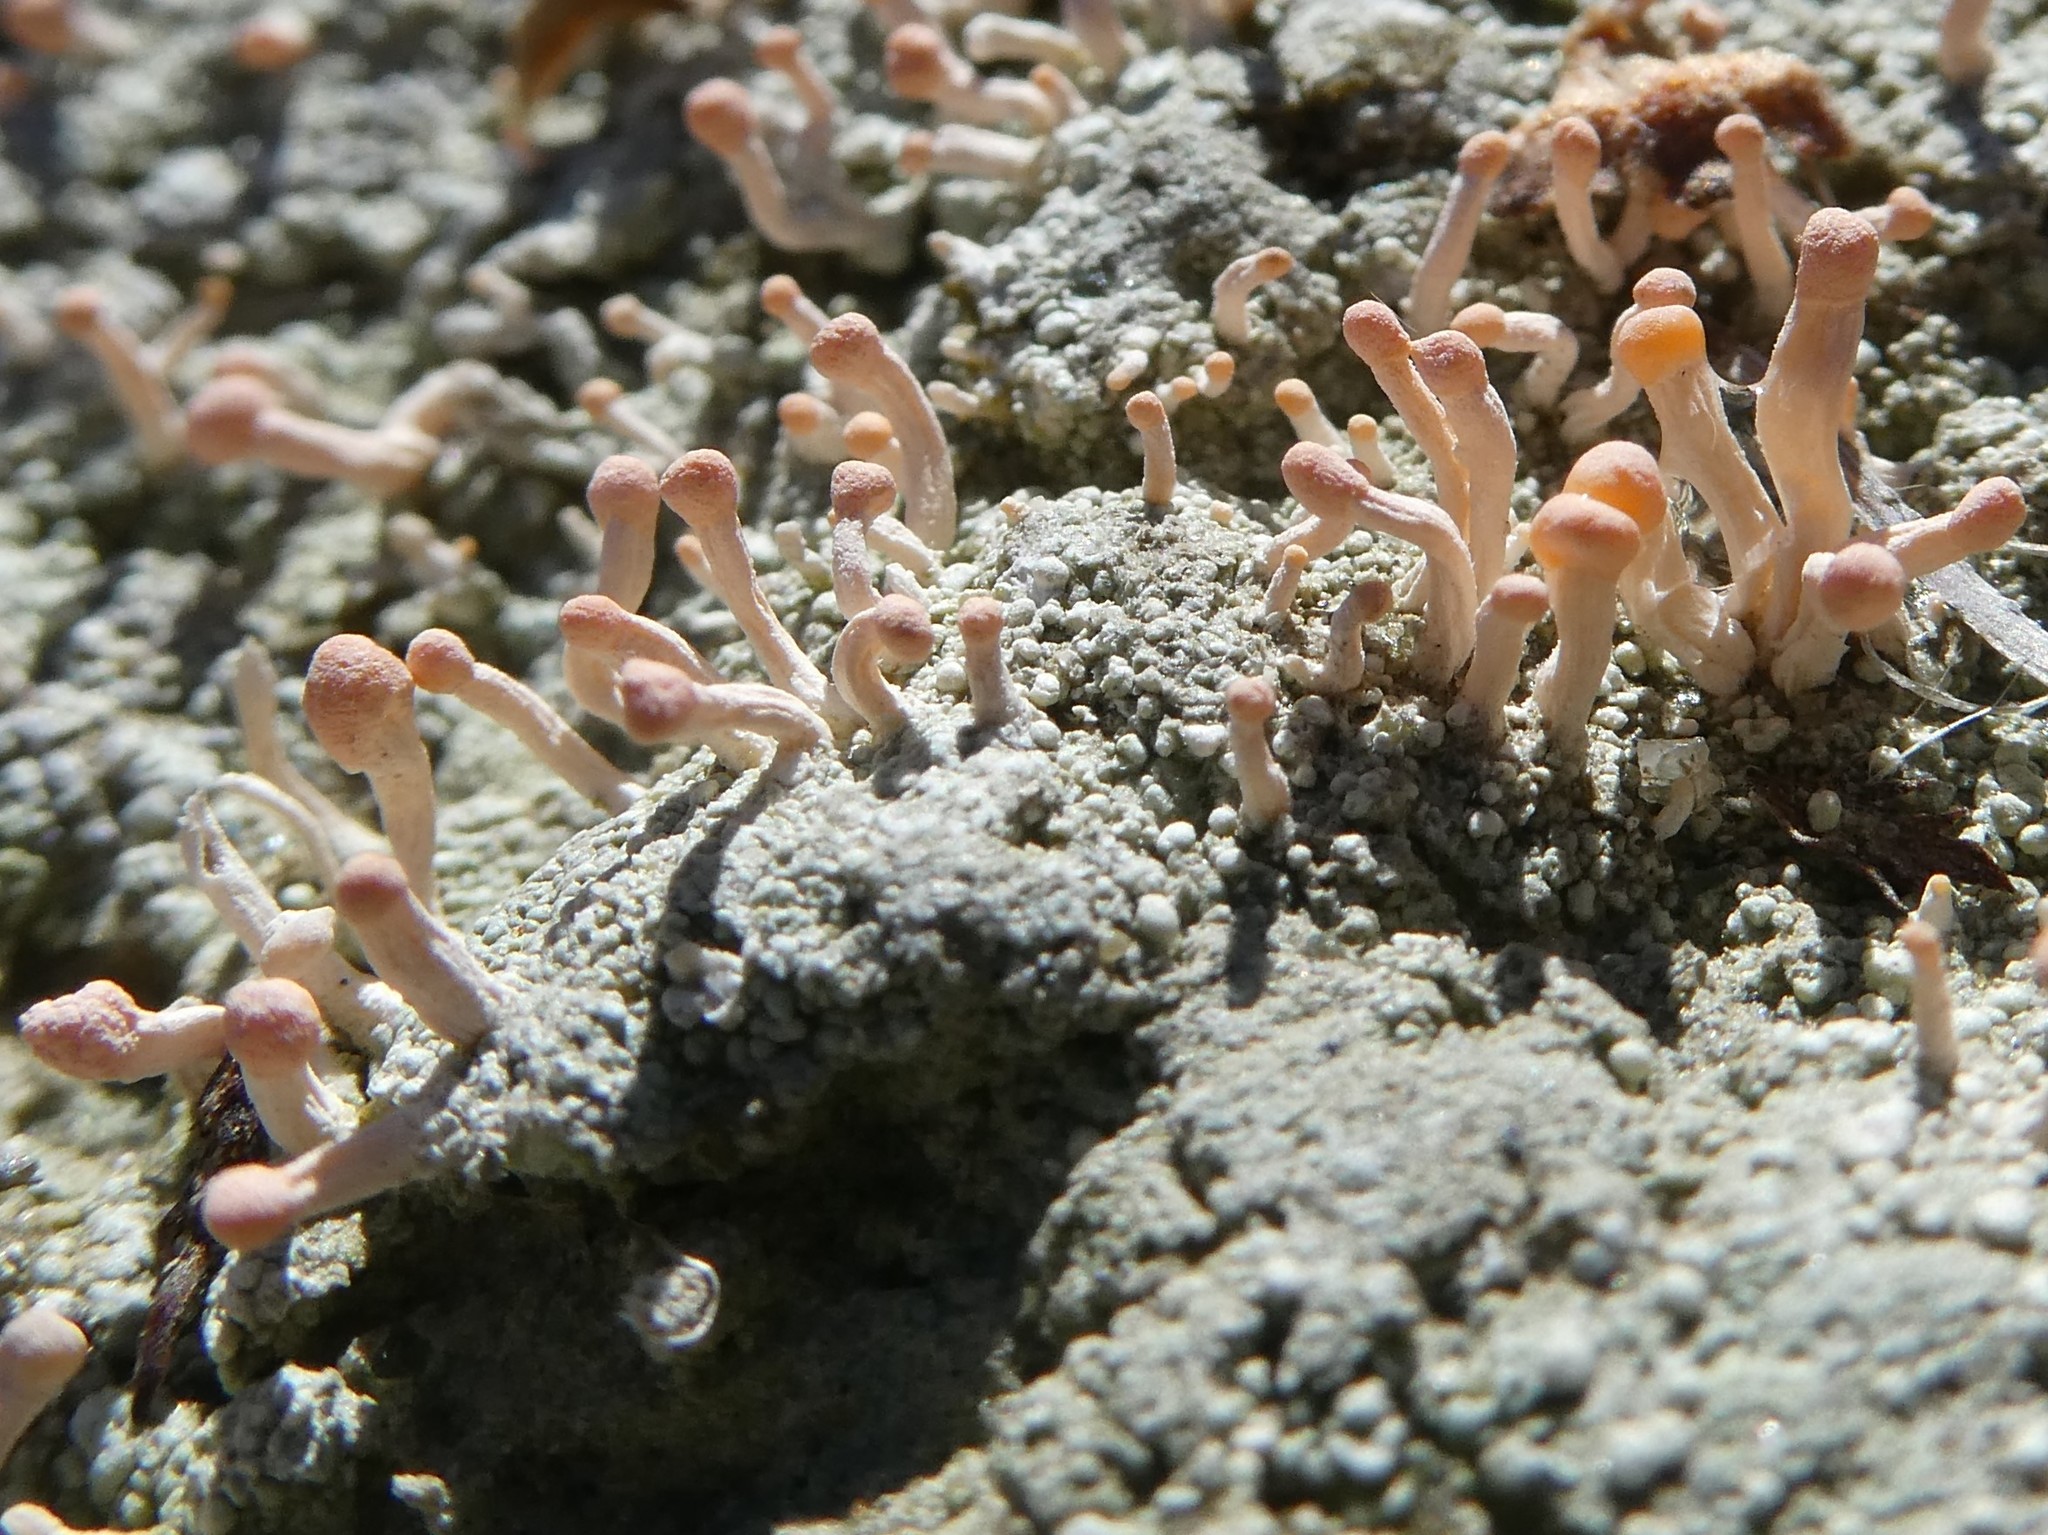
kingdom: Fungi
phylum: Ascomycota
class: Lecanoromycetes
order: Pertusariales
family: Icmadophilaceae
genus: Dibaeis
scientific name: Dibaeis baeomyces
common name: Pink earth lichen
